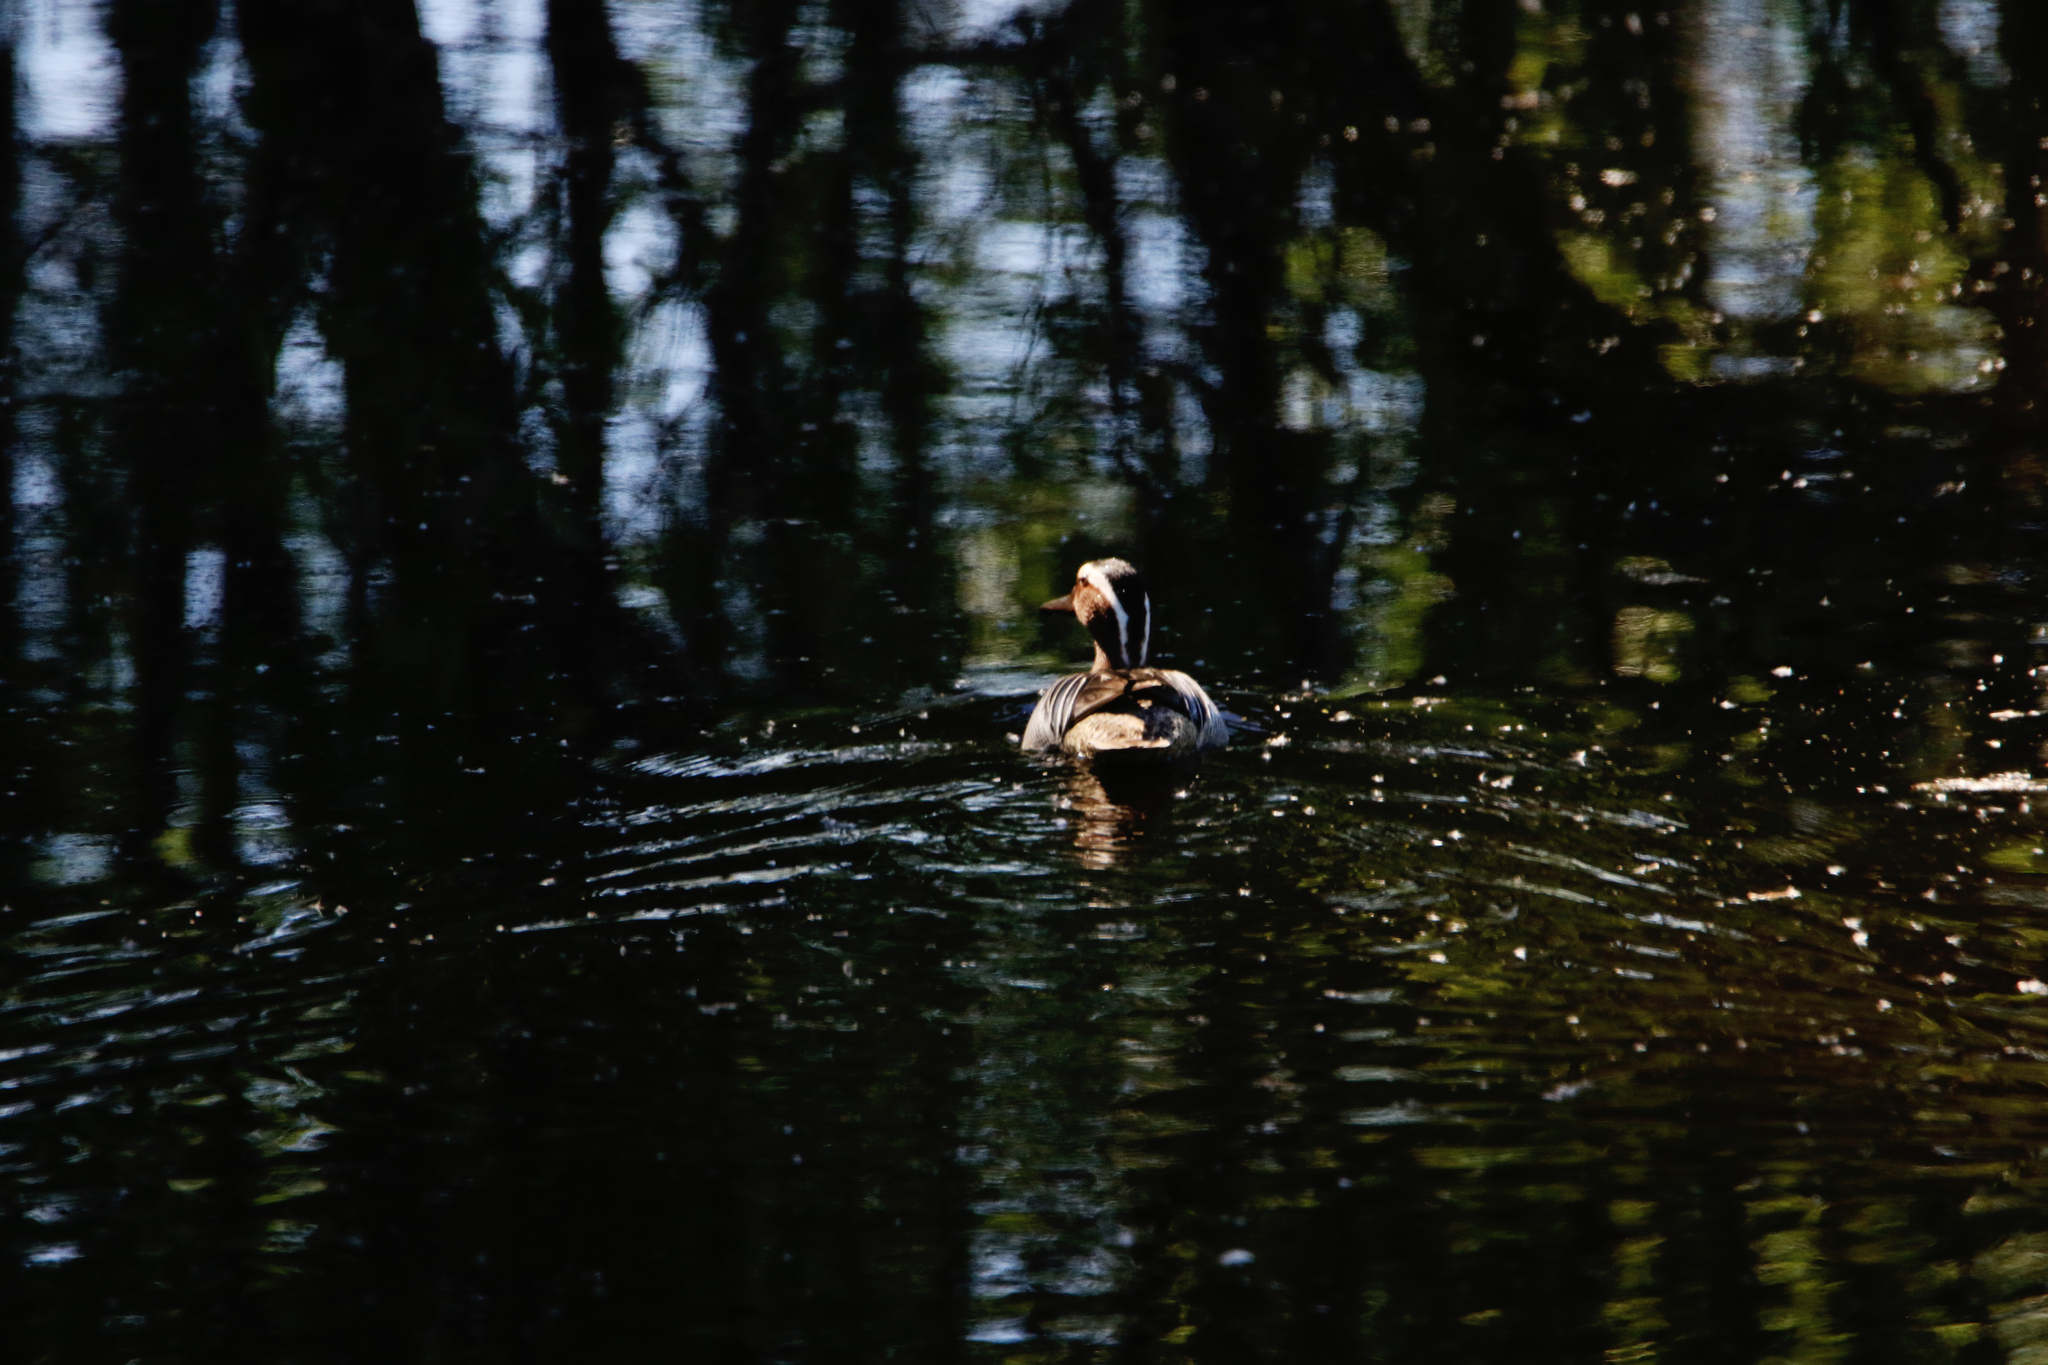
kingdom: Animalia
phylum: Chordata
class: Aves
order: Anseriformes
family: Anatidae
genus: Spatula
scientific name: Spatula querquedula
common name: Garganey
